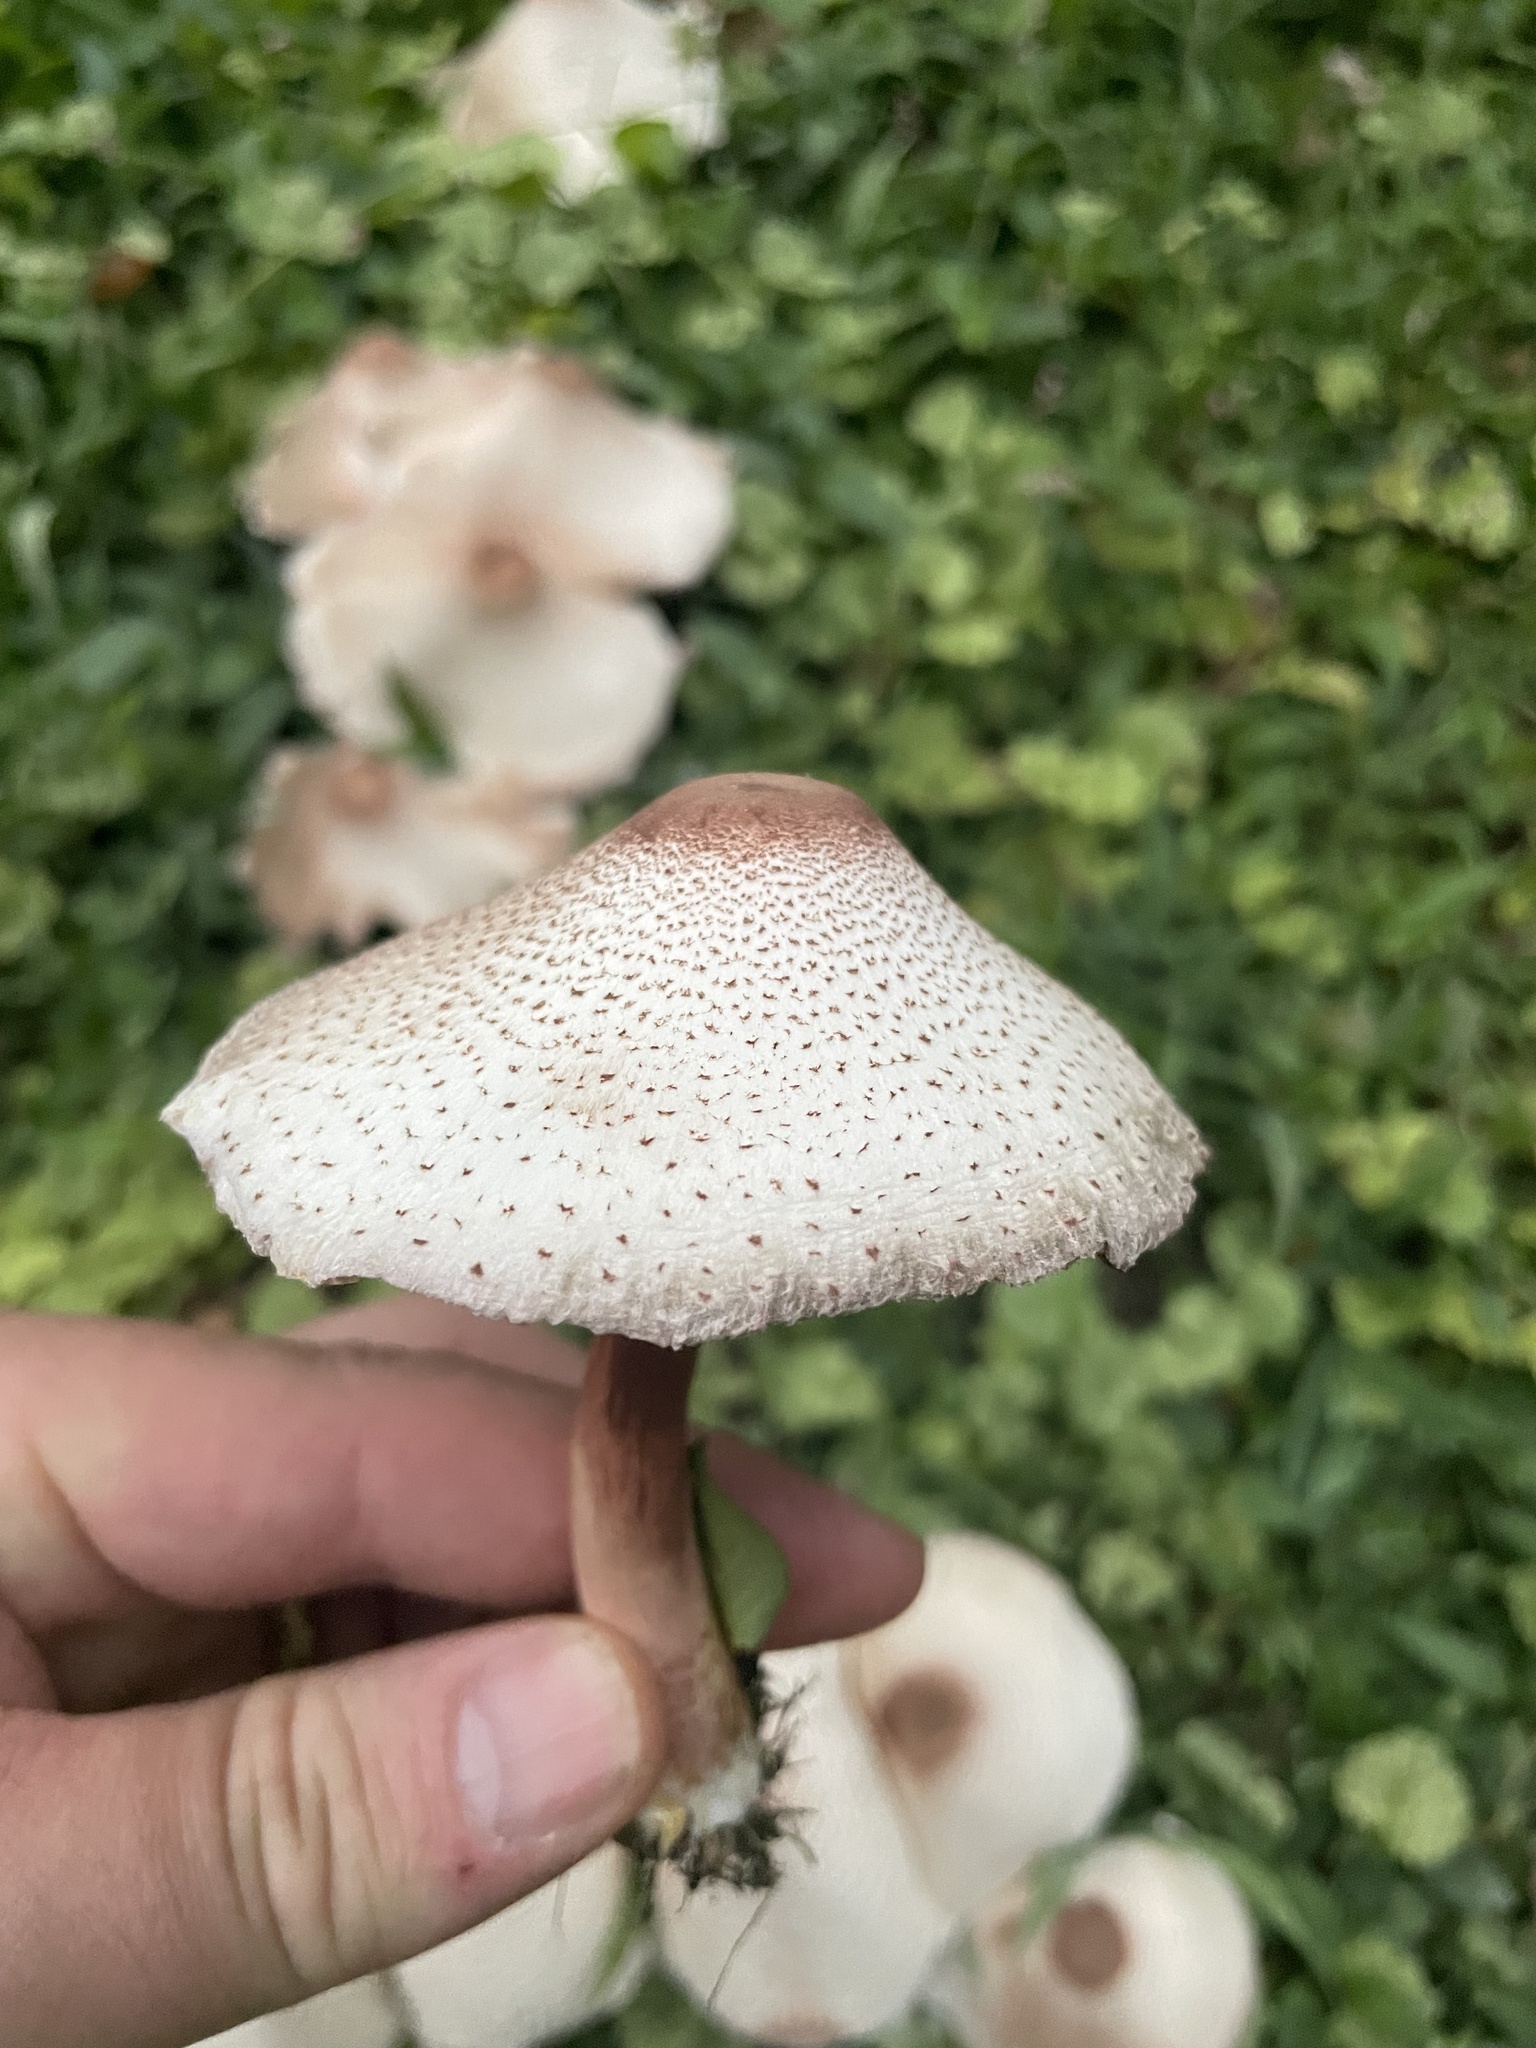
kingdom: Fungi
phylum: Basidiomycota
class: Agaricomycetes
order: Agaricales
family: Agaricaceae
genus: Leucoagaricus
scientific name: Leucoagaricus americanus
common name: Reddening lepiota
